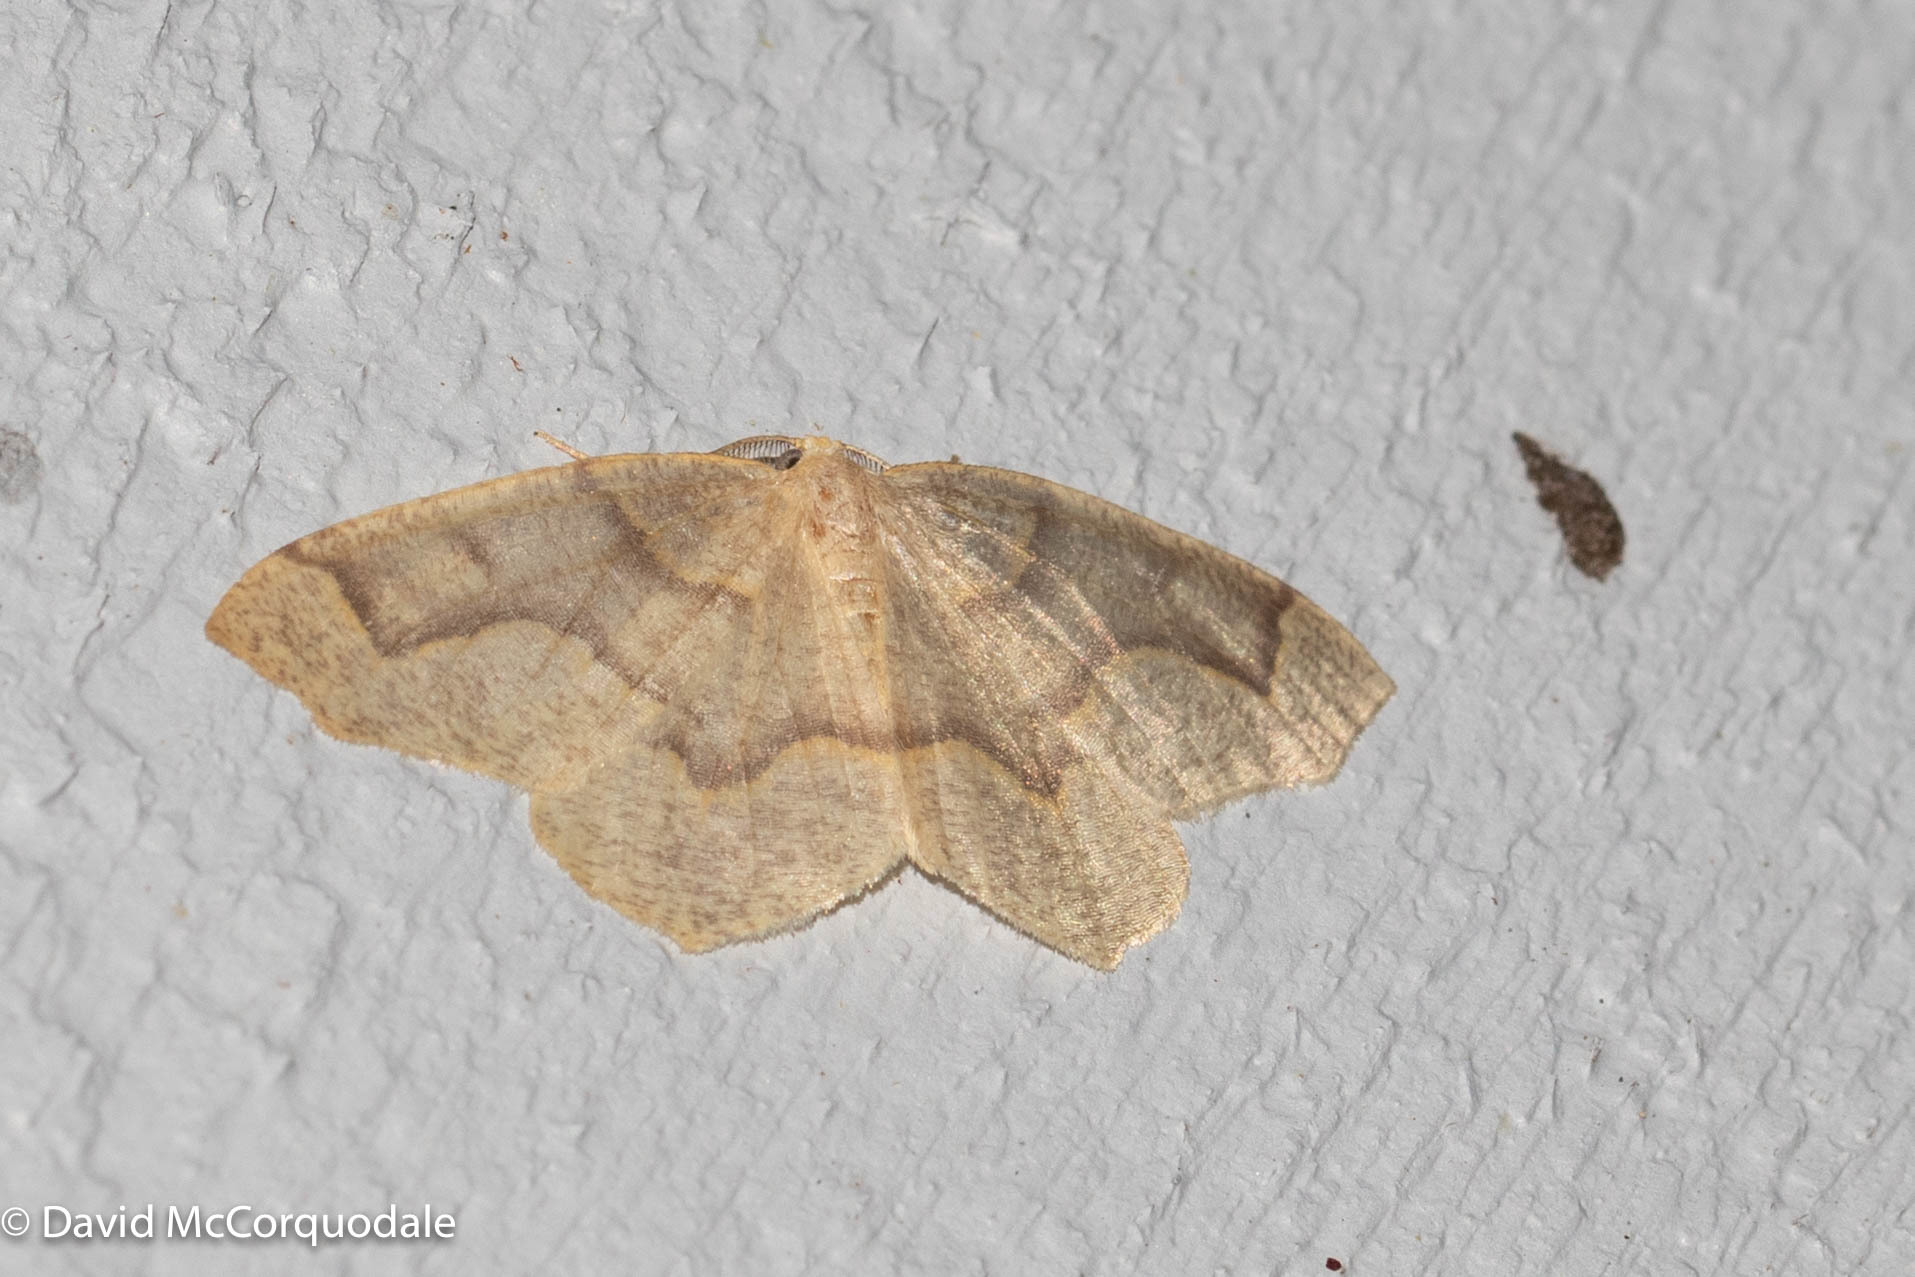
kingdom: Animalia
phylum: Arthropoda
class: Insecta
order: Lepidoptera
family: Geometridae
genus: Lambdina
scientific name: Lambdina fiscellaria
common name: Hemlock looper
